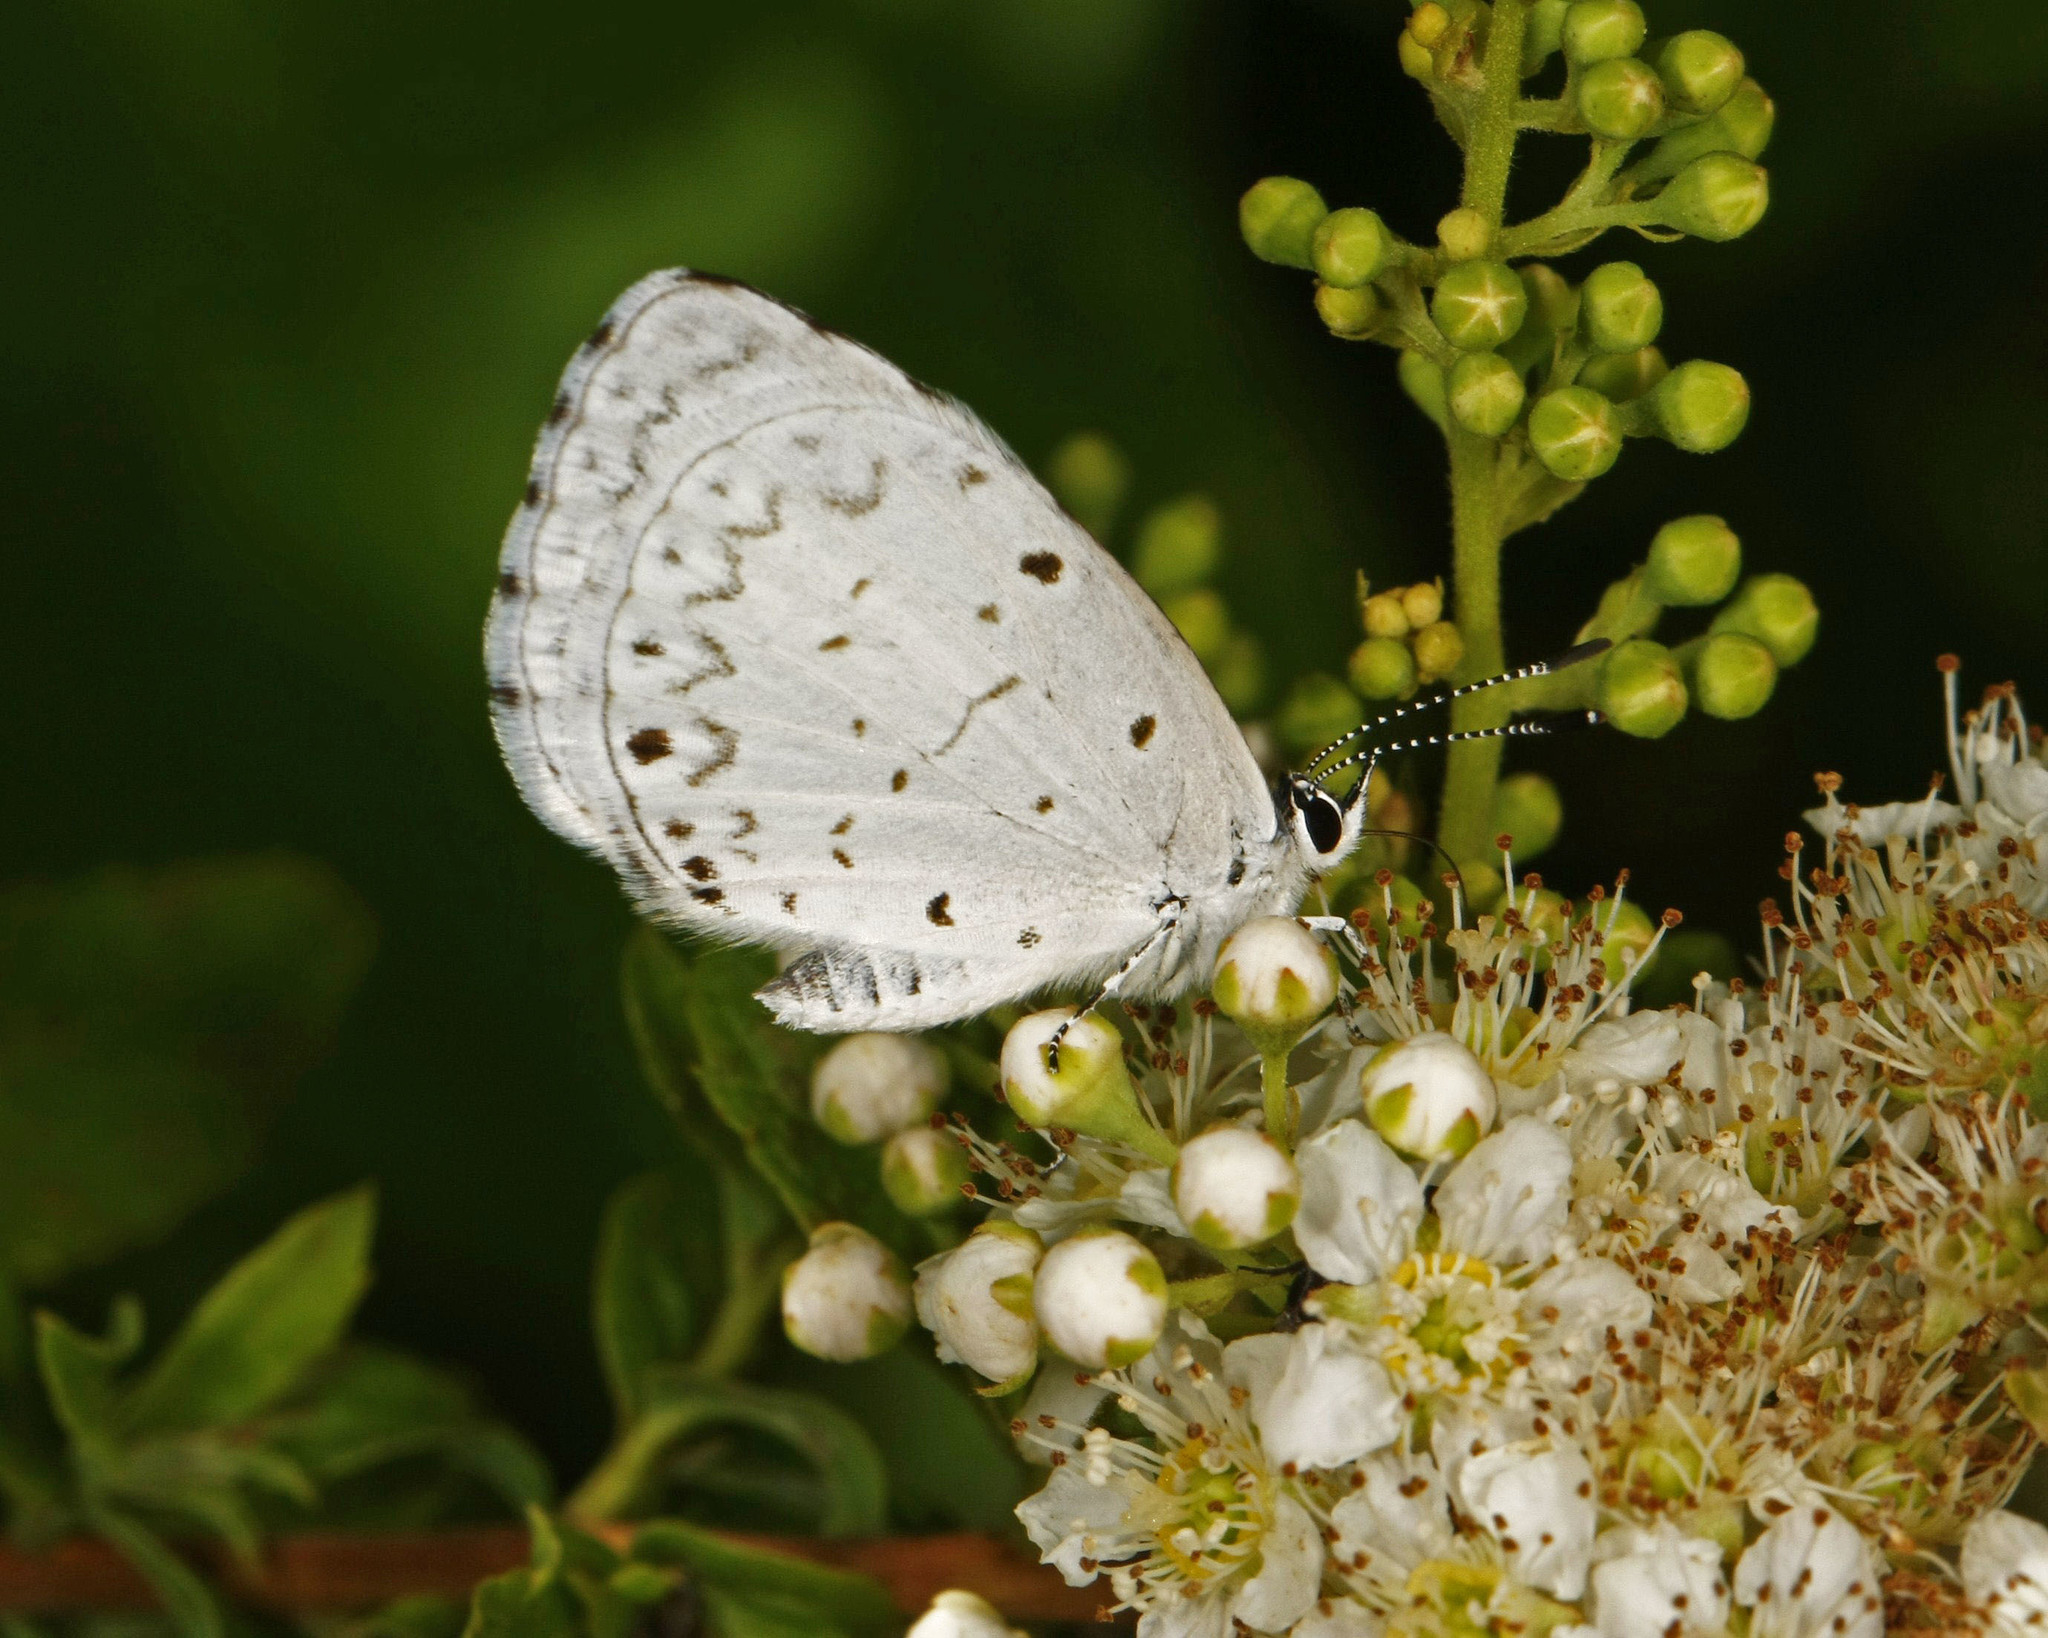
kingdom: Animalia
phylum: Arthropoda
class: Insecta
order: Lepidoptera
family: Lycaenidae
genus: Cyaniris
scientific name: Cyaniris neglecta
